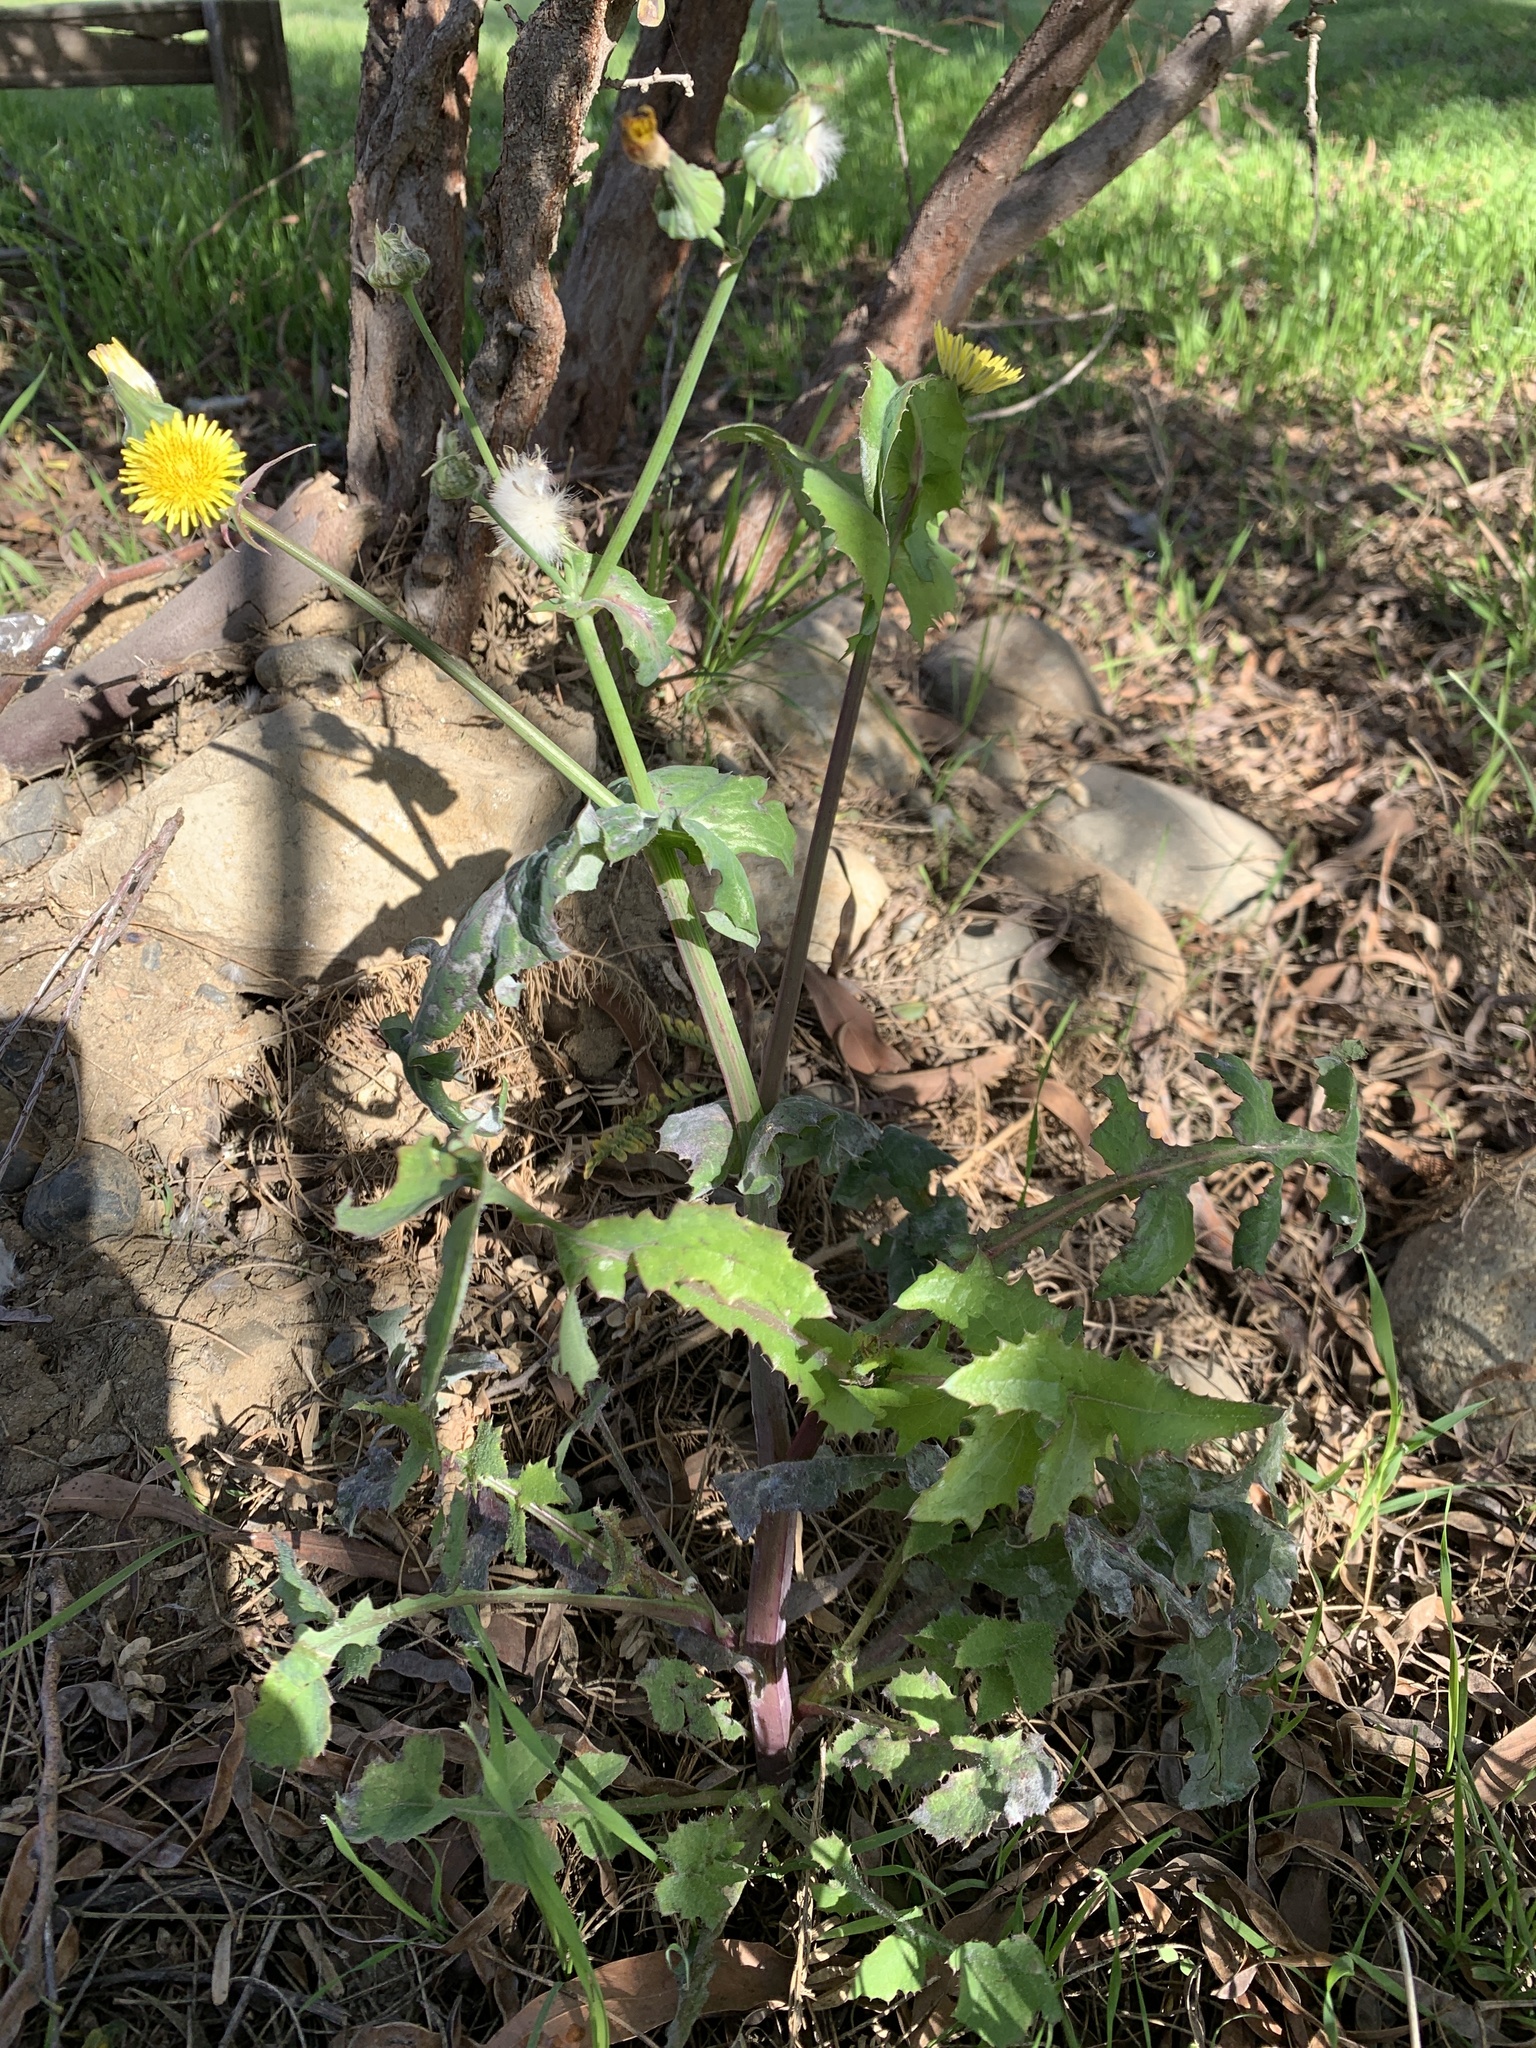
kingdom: Plantae
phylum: Tracheophyta
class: Magnoliopsida
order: Asterales
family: Asteraceae
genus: Sonchus
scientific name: Sonchus oleraceus
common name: Common sowthistle
